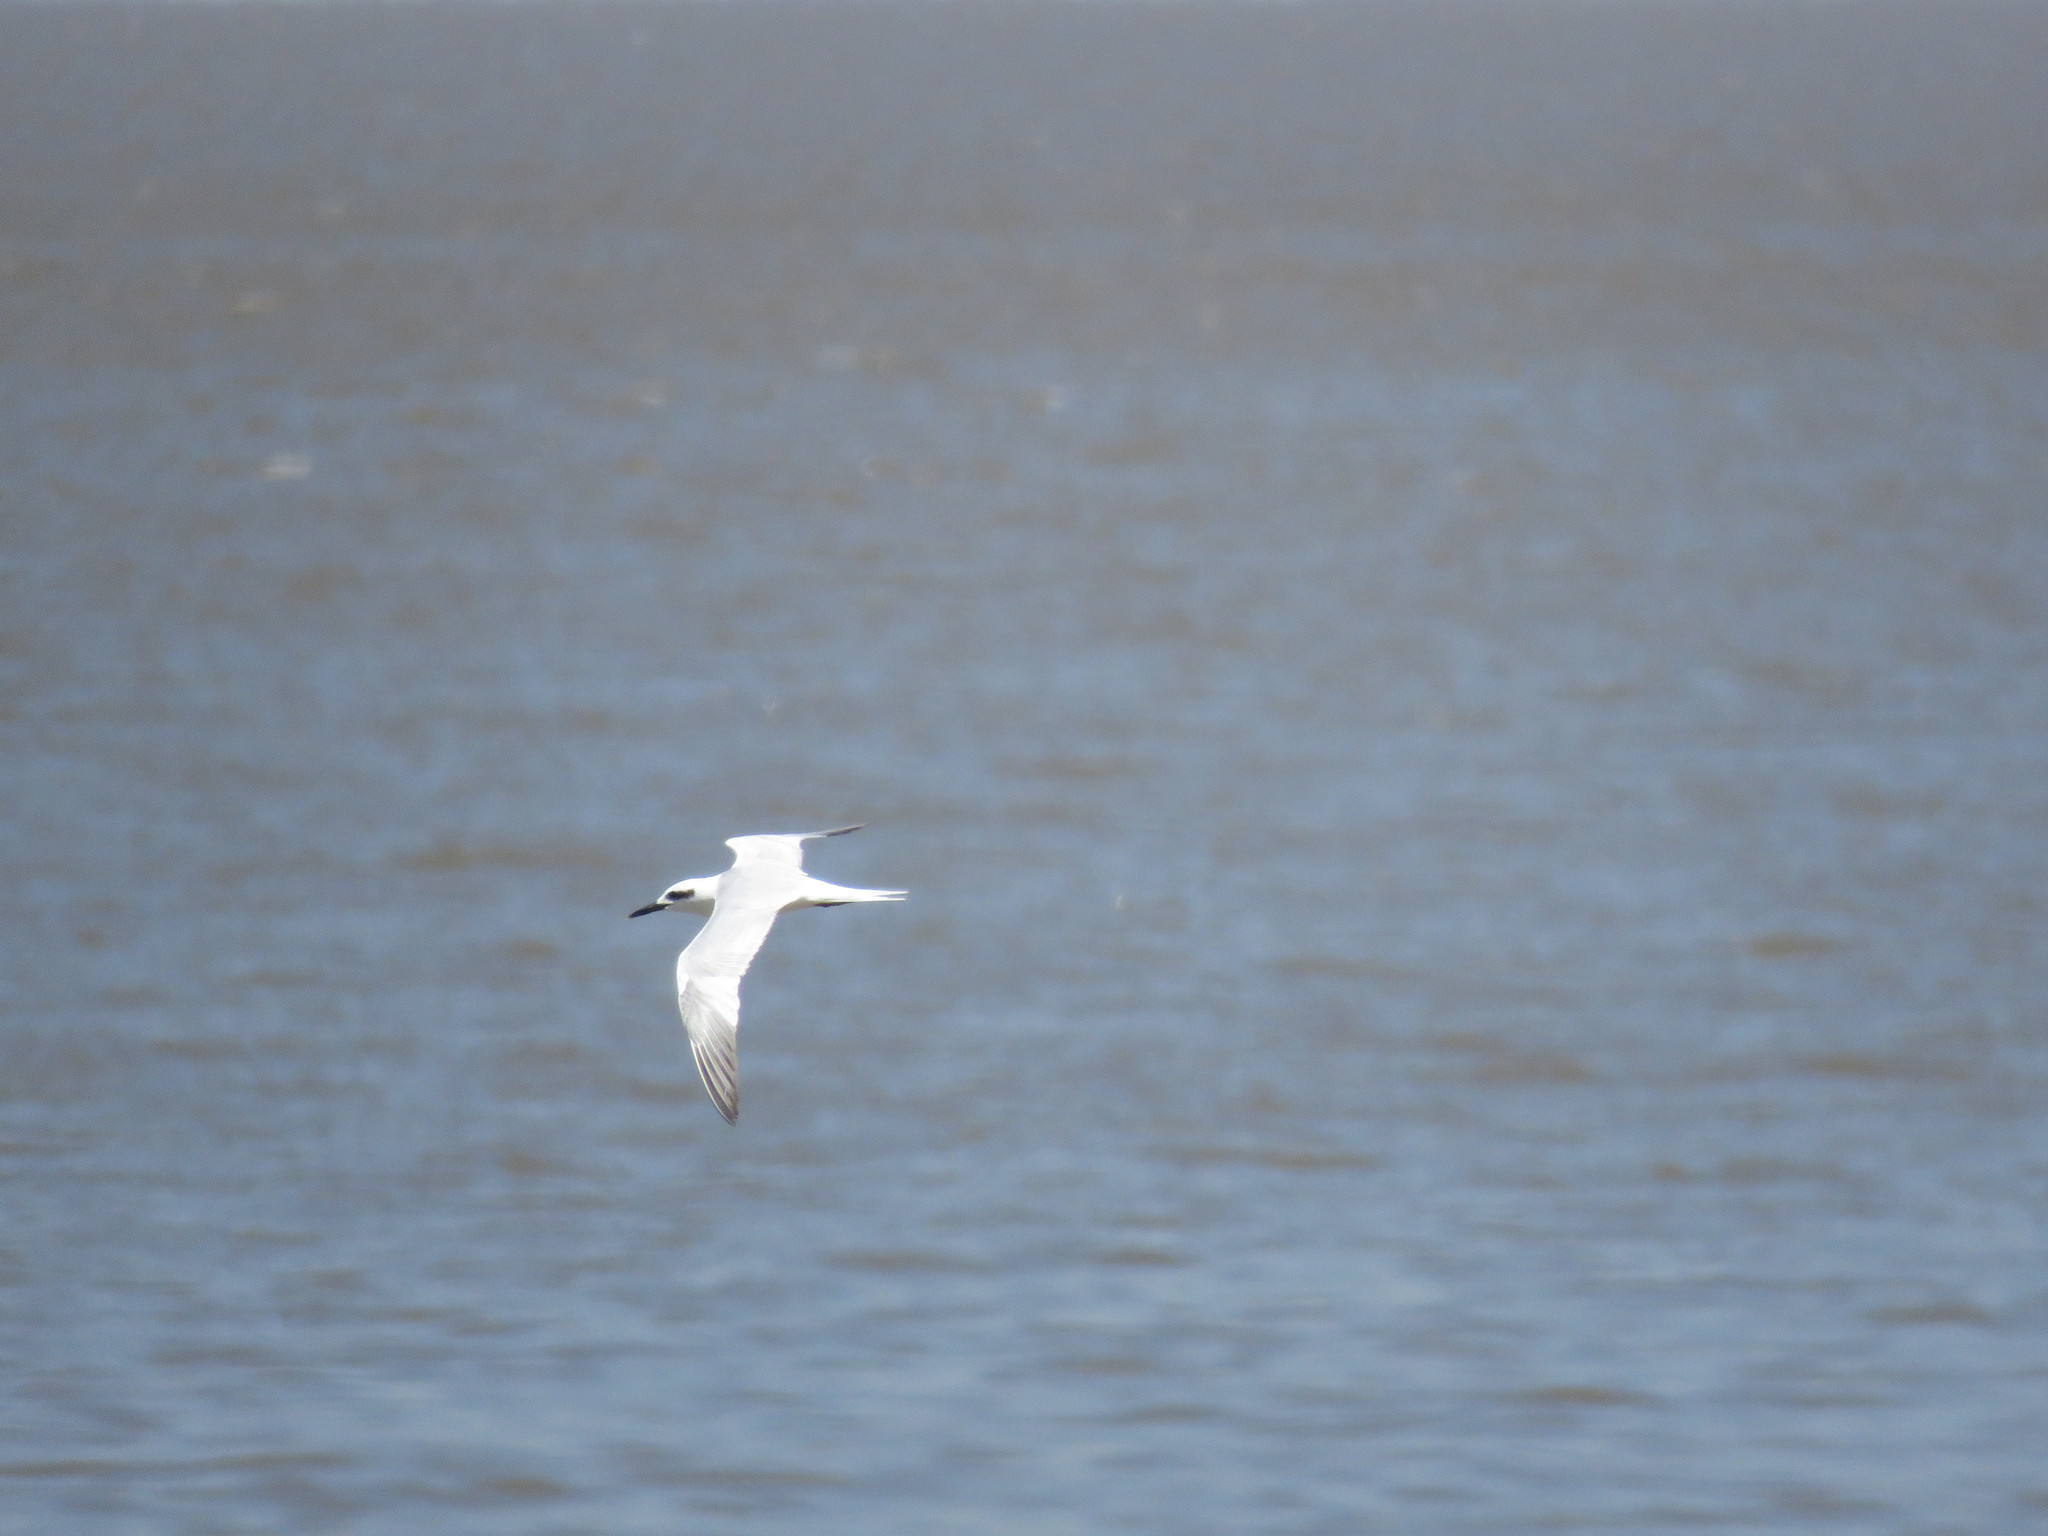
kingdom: Animalia
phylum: Chordata
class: Aves
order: Charadriiformes
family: Laridae
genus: Sterna
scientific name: Sterna trudeaui
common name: Snowy-crowned tern
